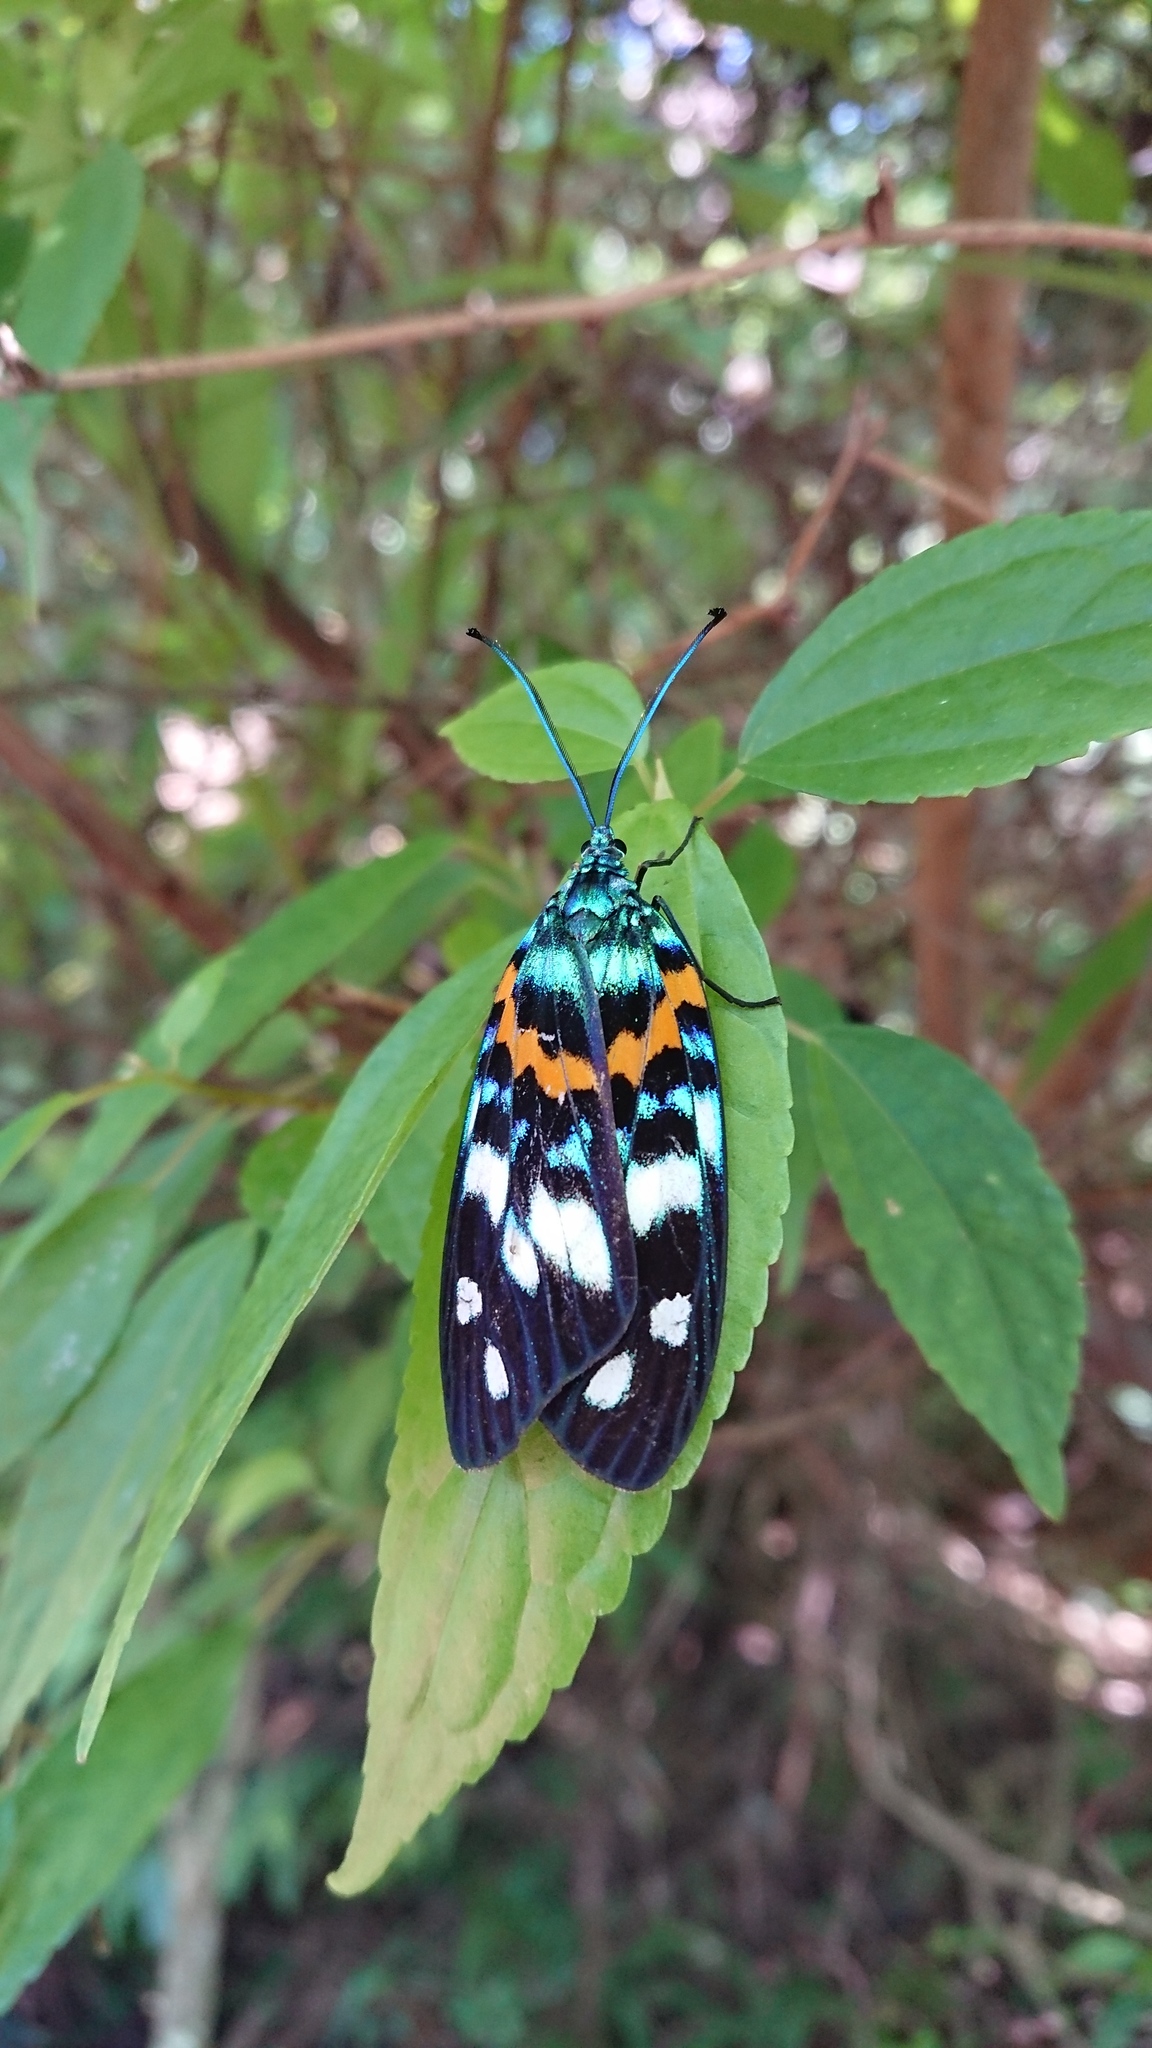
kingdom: Animalia
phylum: Arthropoda
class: Insecta
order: Lepidoptera
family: Zygaenidae
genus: Erasmia
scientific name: Erasmia pulchella
